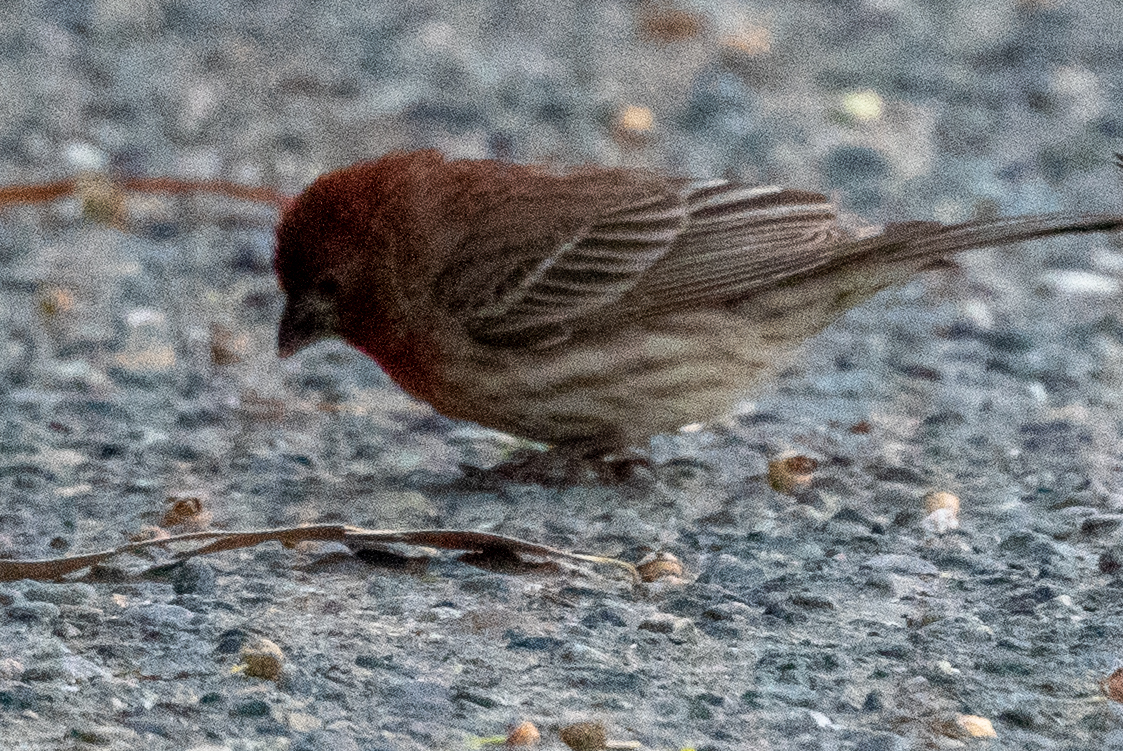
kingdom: Animalia
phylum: Chordata
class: Aves
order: Passeriformes
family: Fringillidae
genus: Haemorhous
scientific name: Haemorhous mexicanus
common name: House finch
